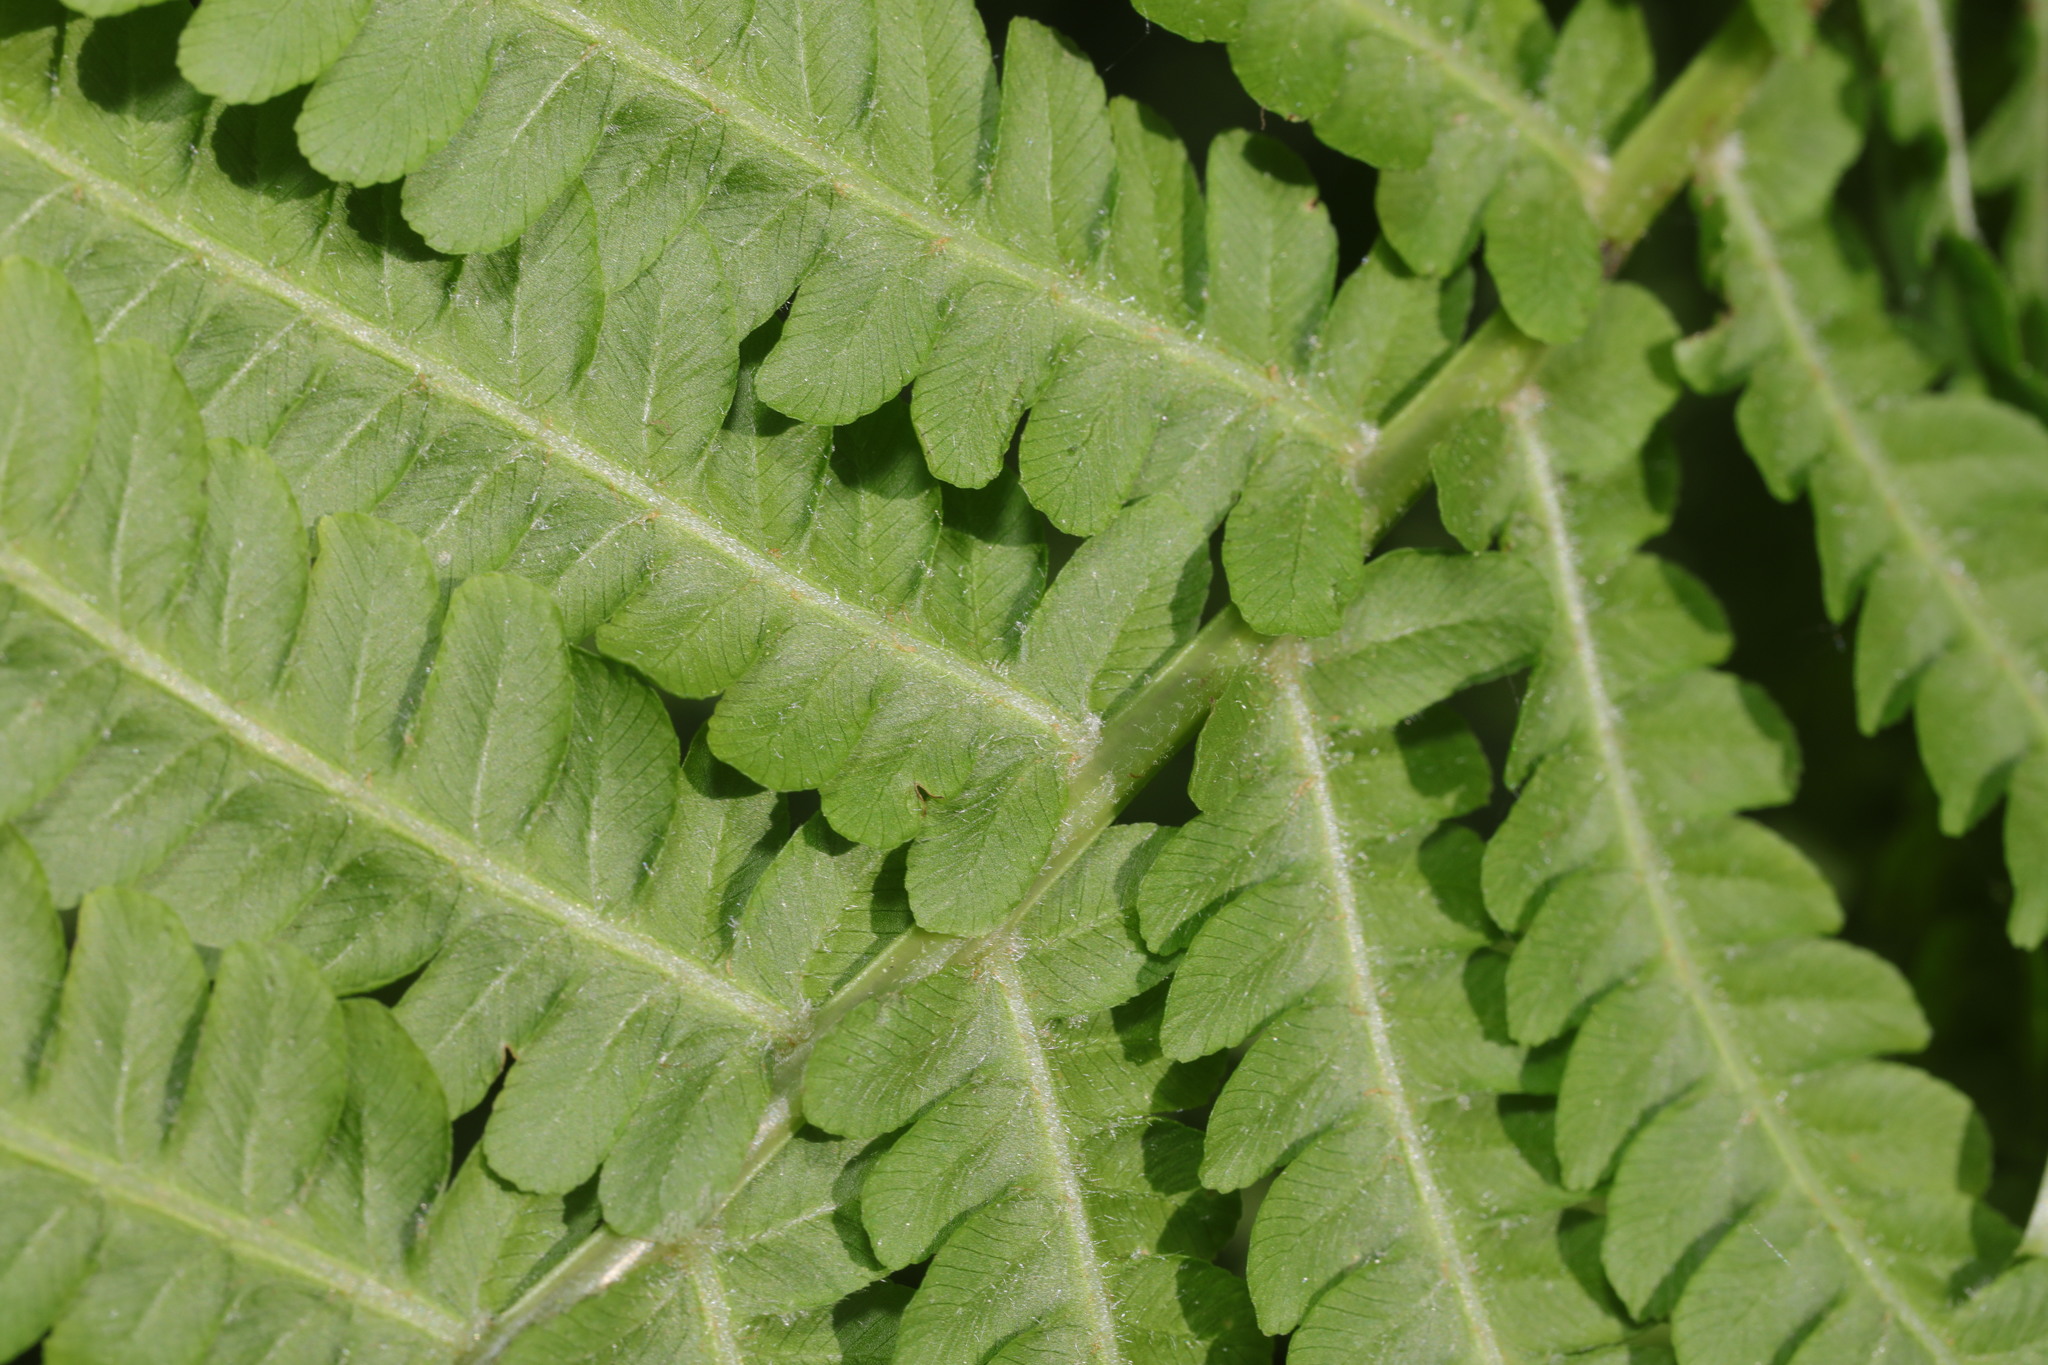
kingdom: Plantae
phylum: Tracheophyta
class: Polypodiopsida
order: Polypodiales
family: Dryopteridaceae
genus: Dryopteris
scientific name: Dryopteris filix-mas
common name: Male fern
